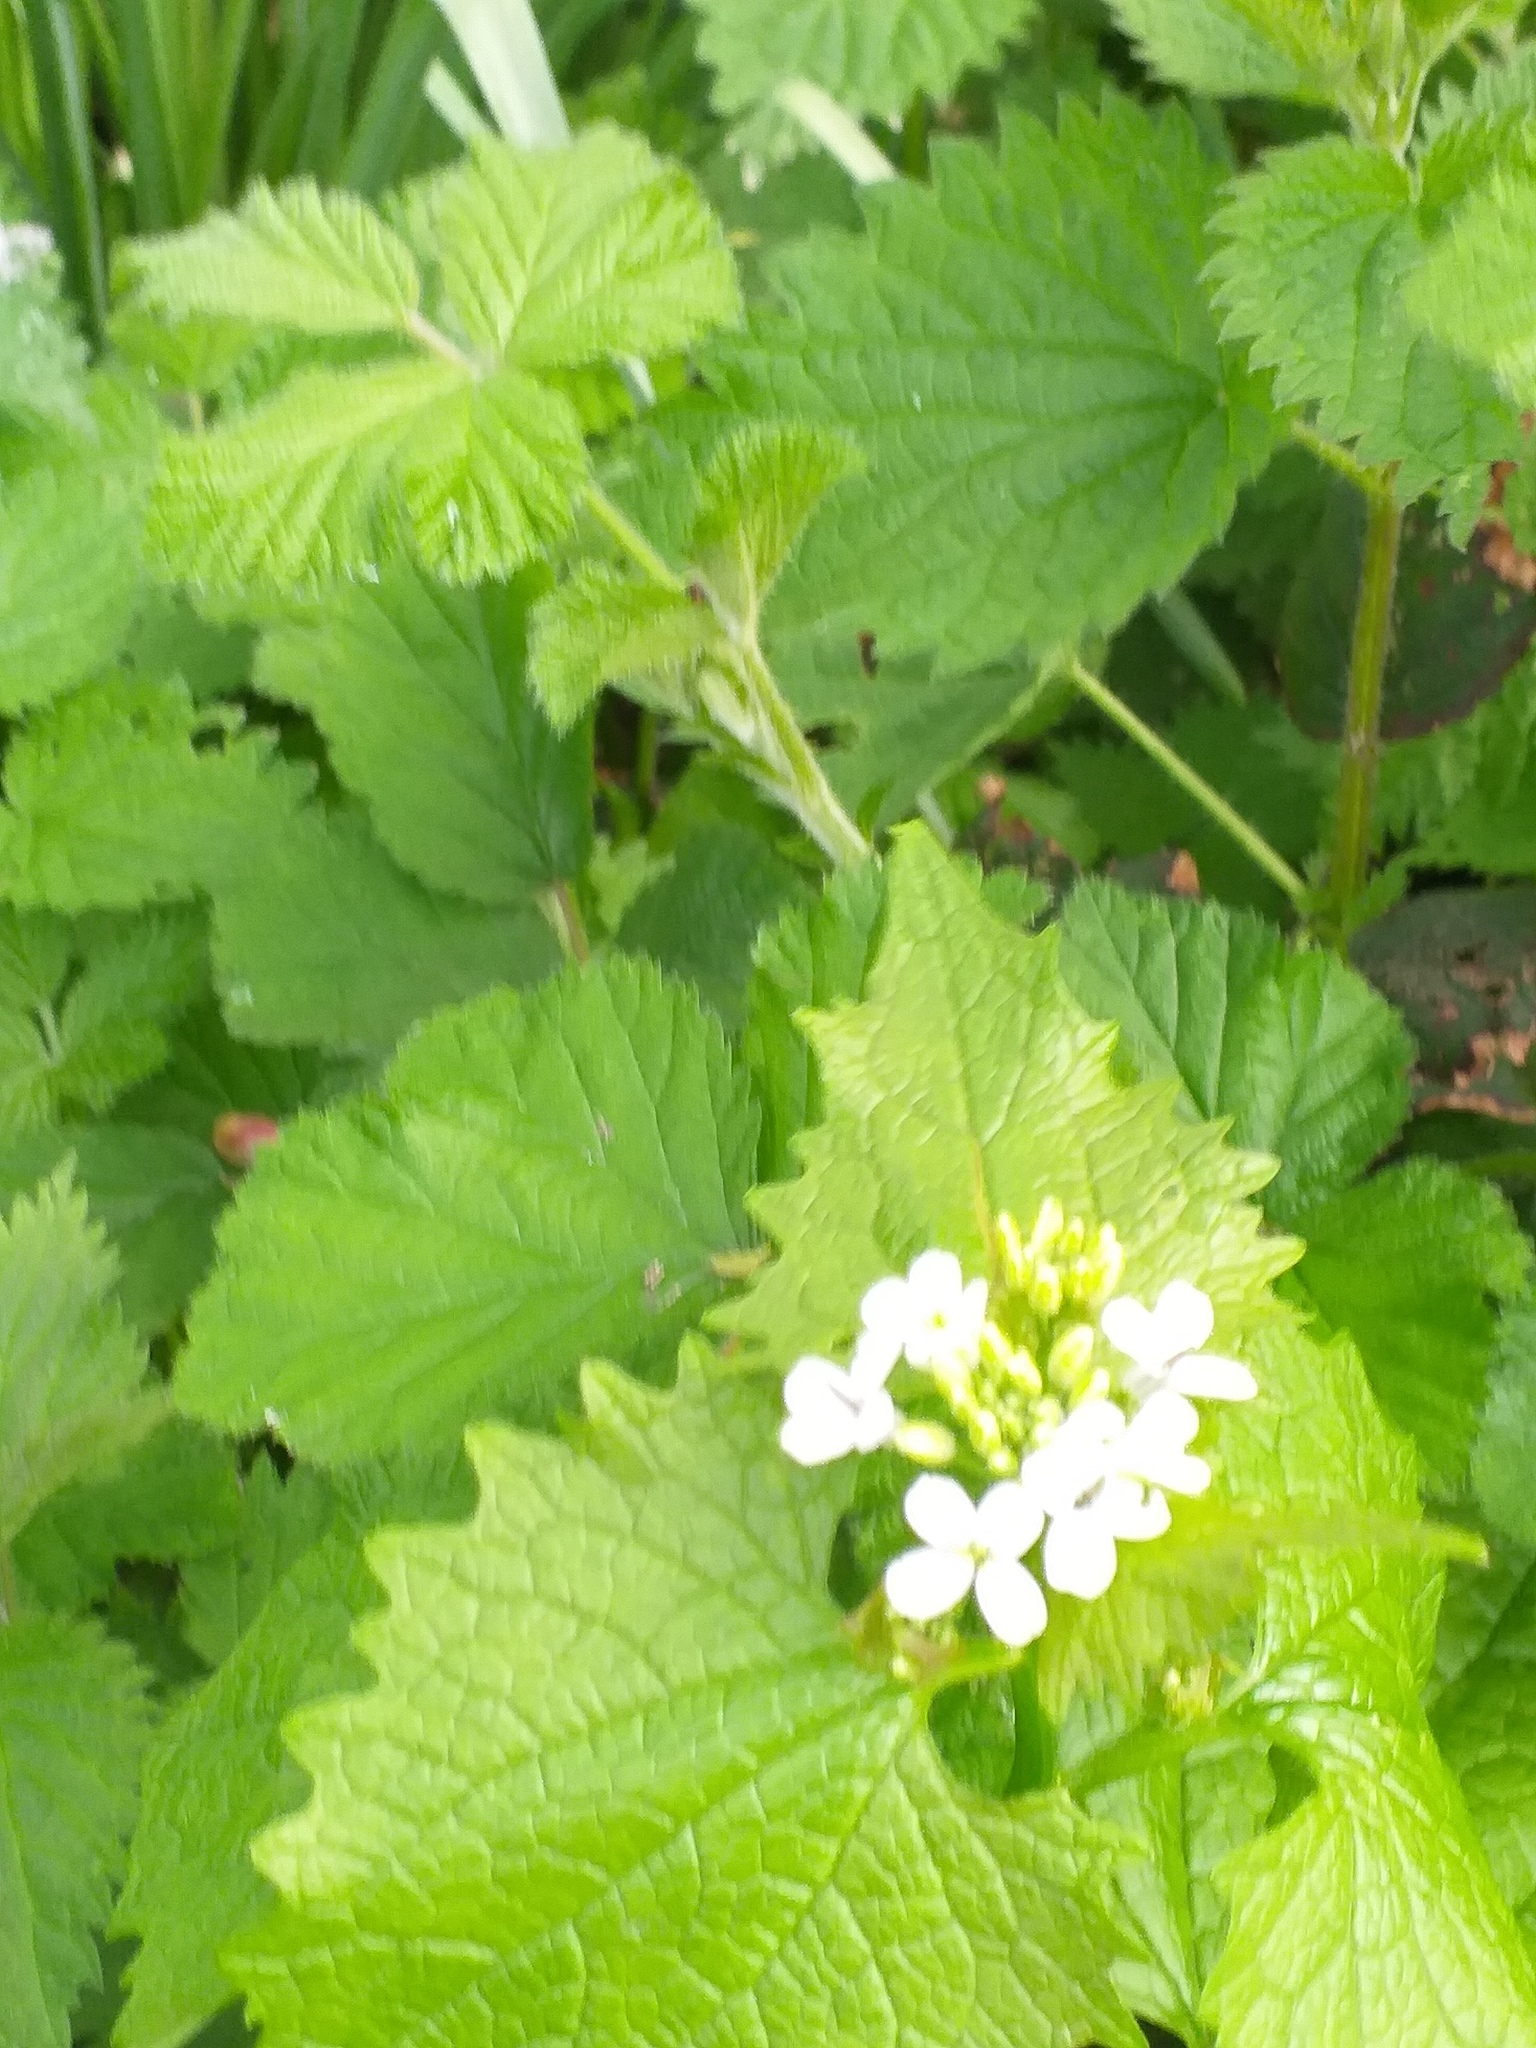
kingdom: Plantae
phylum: Tracheophyta
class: Magnoliopsida
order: Brassicales
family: Brassicaceae
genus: Alliaria
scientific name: Alliaria petiolata
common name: Garlic mustard
